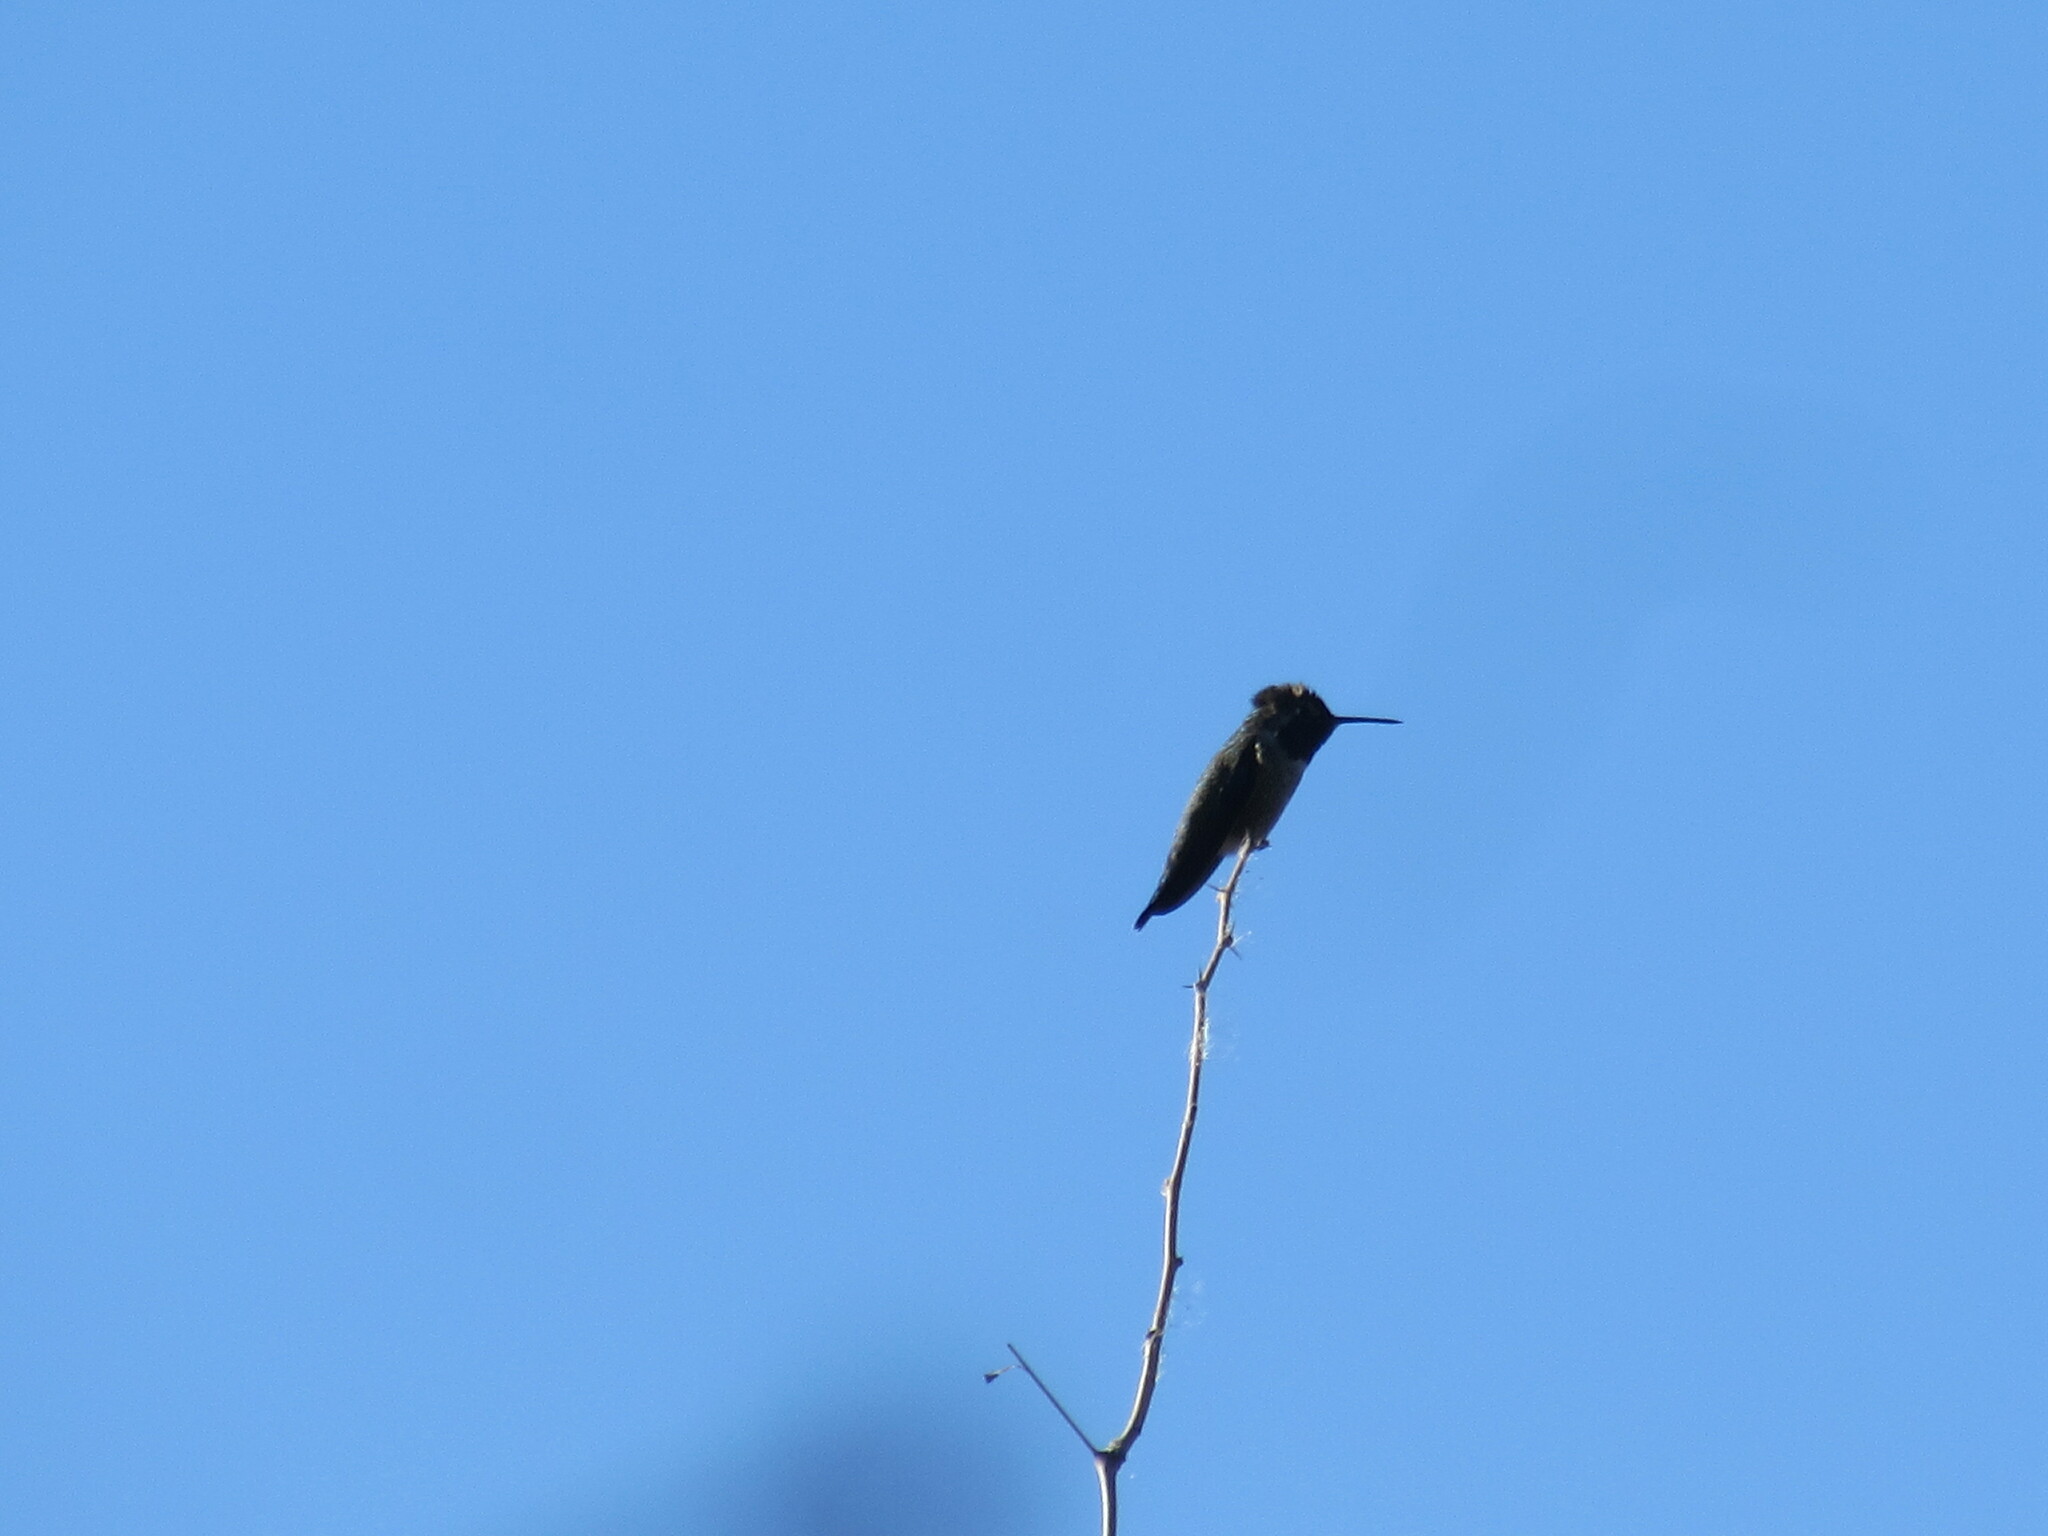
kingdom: Animalia
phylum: Chordata
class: Aves
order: Apodiformes
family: Trochilidae
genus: Calypte
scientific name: Calypte anna
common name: Anna's hummingbird
